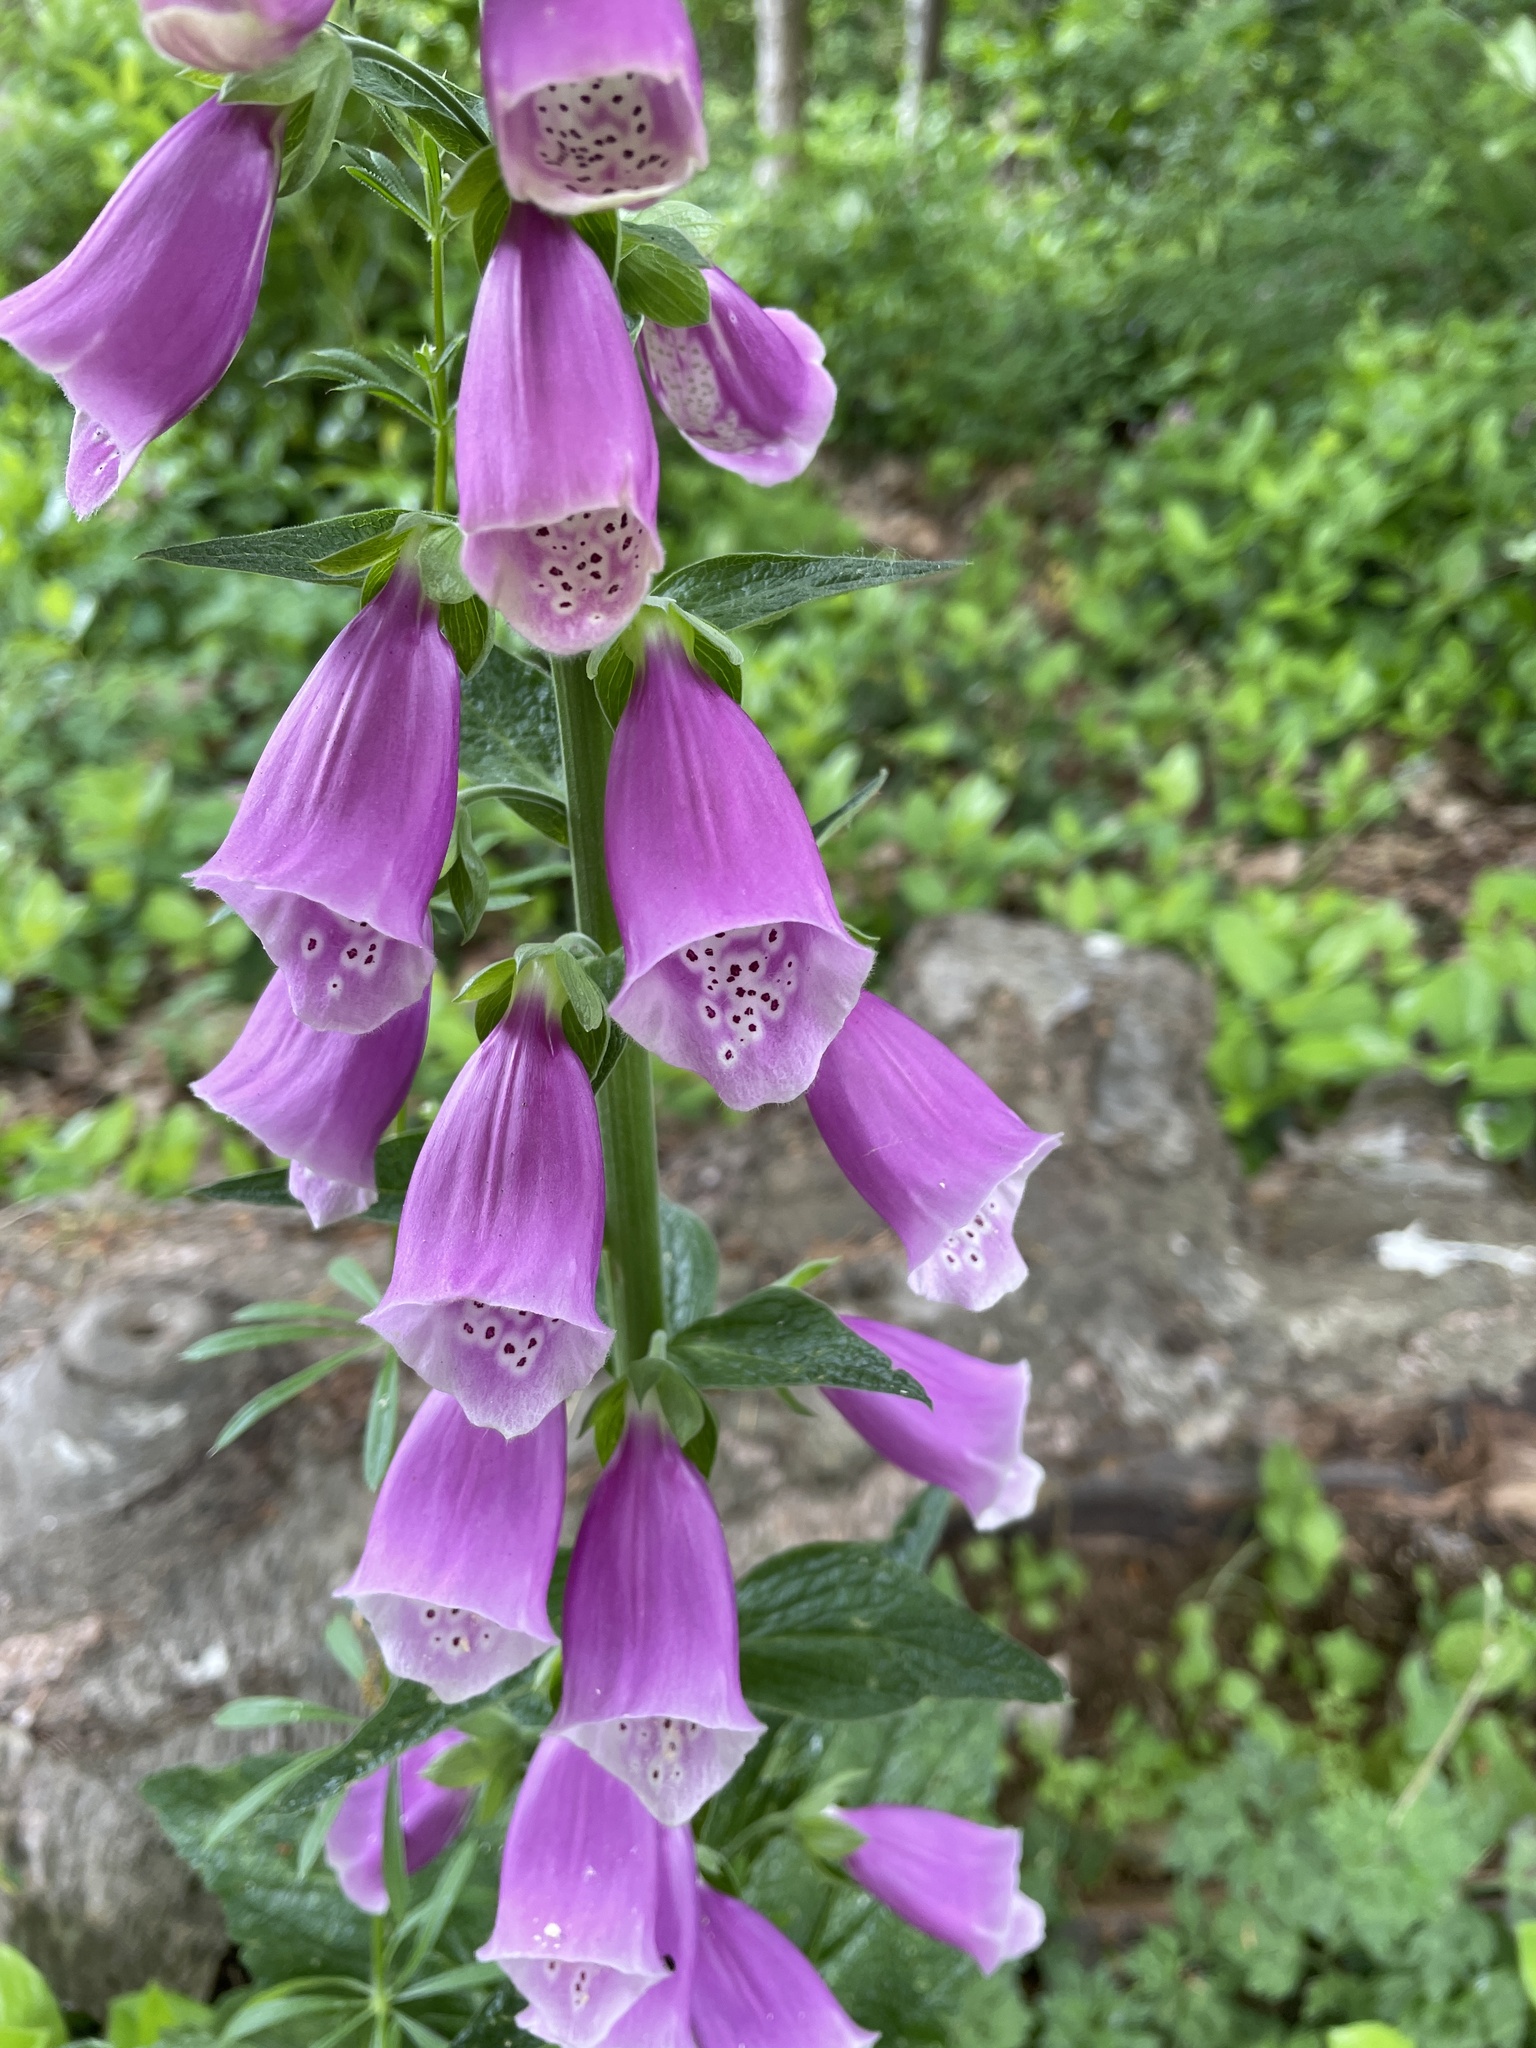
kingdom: Plantae
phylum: Tracheophyta
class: Magnoliopsida
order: Lamiales
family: Plantaginaceae
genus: Digitalis
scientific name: Digitalis purpurea
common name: Foxglove
